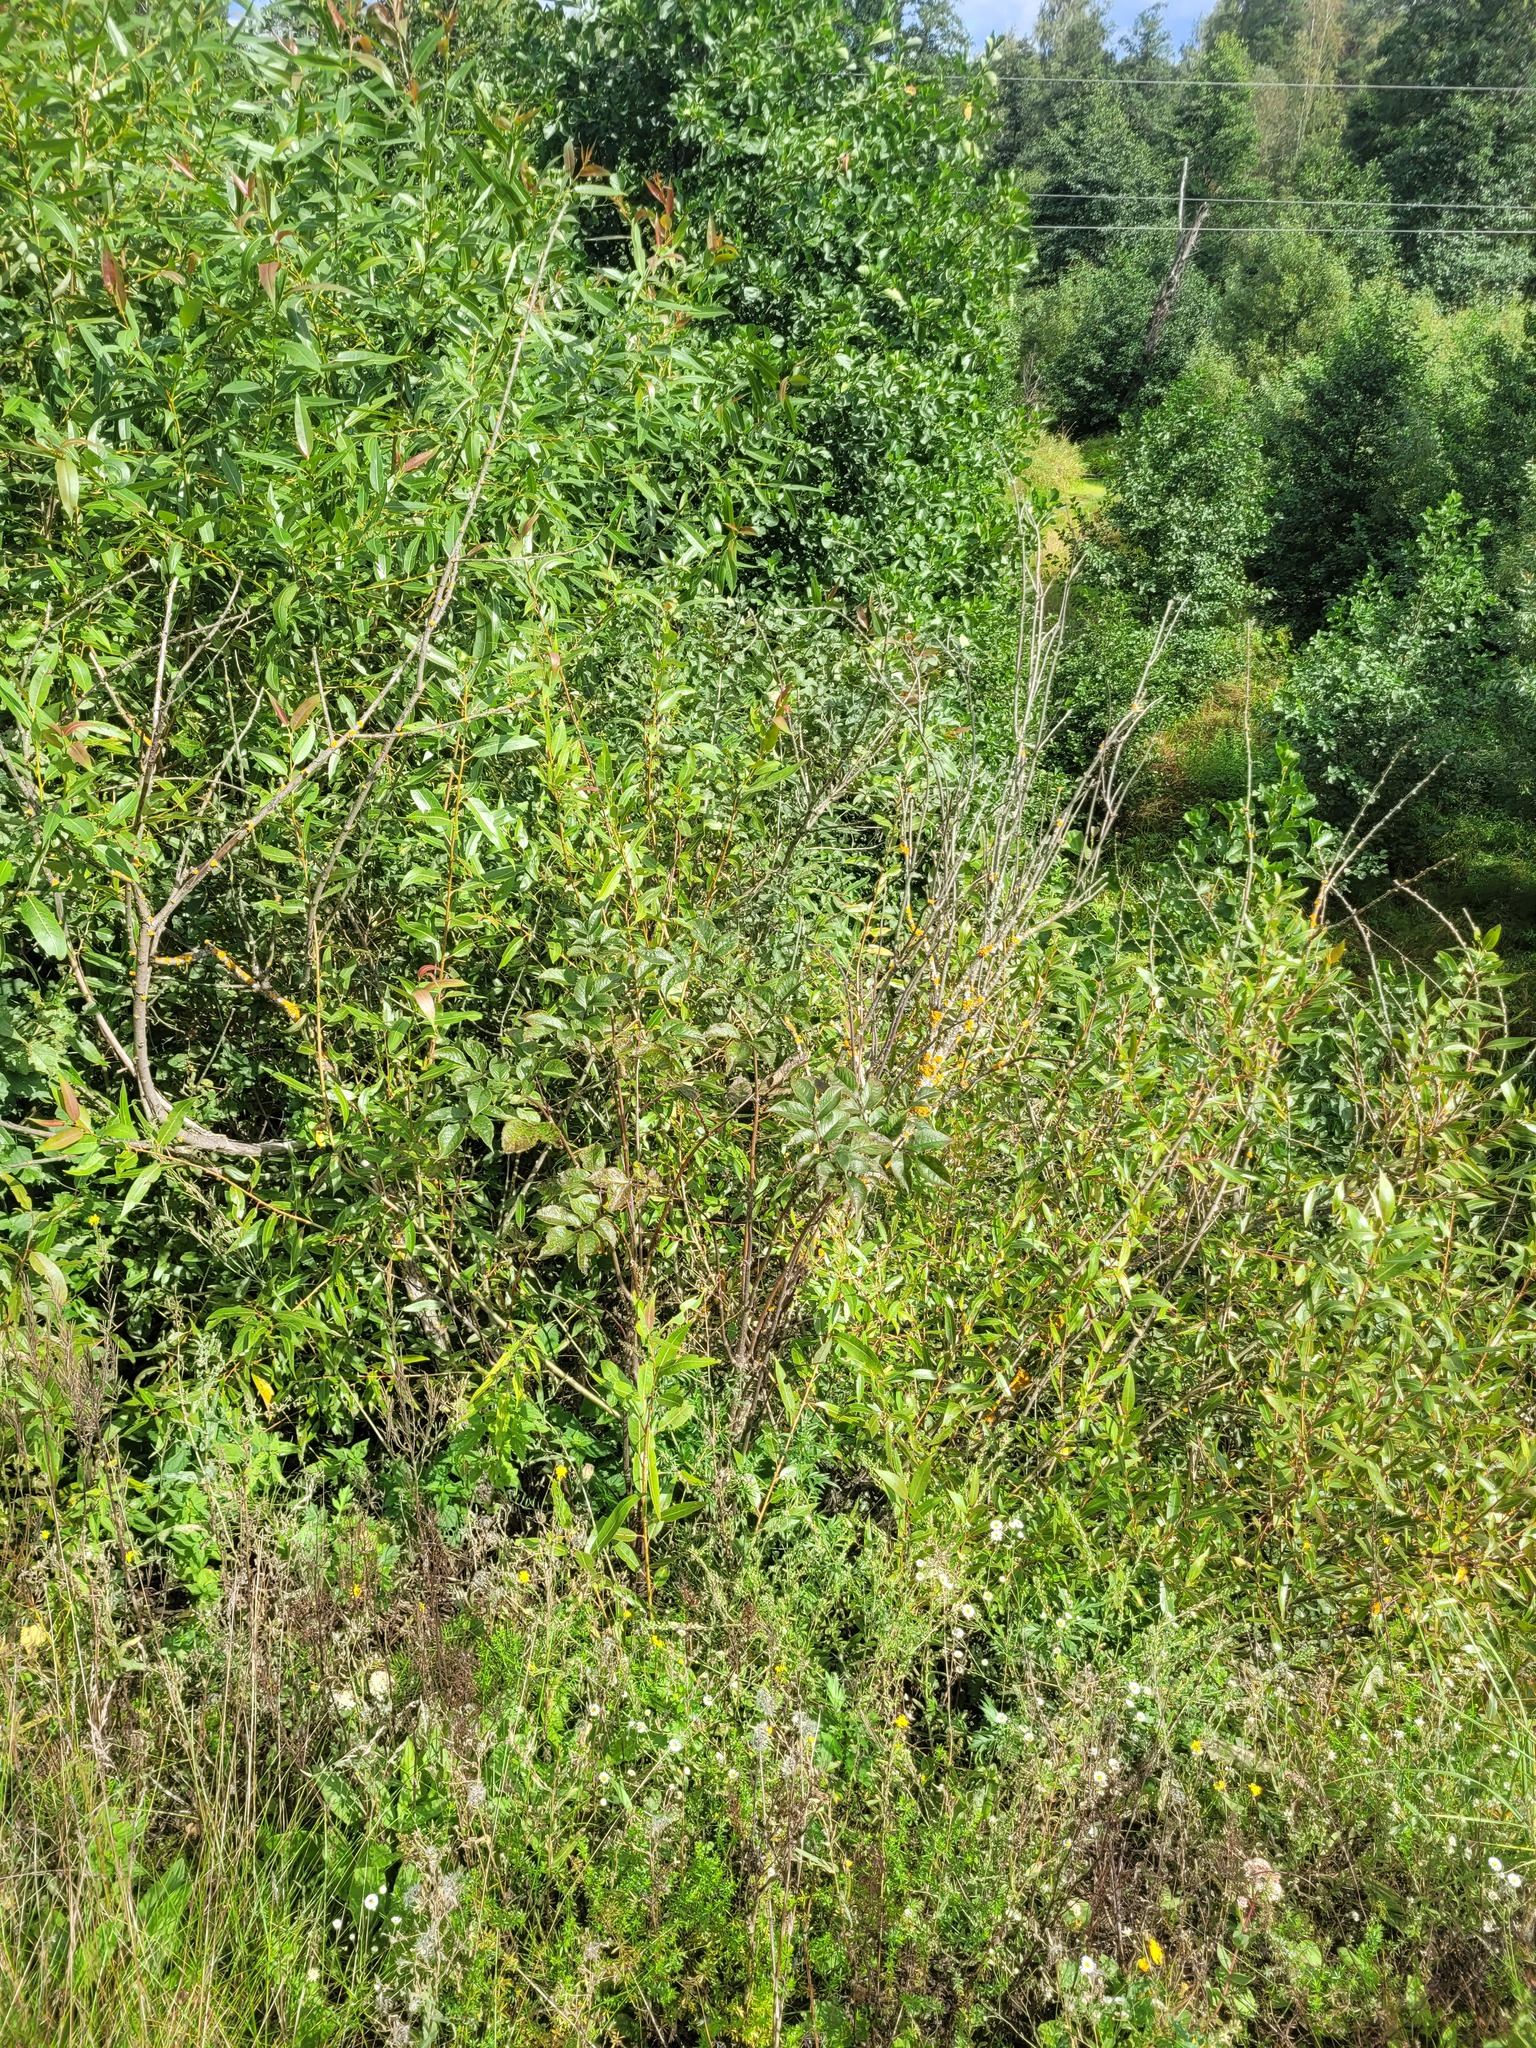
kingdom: Plantae
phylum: Tracheophyta
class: Magnoliopsida
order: Dipsacales
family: Viburnaceae
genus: Sambucus
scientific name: Sambucus racemosa
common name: Red-berried elder
